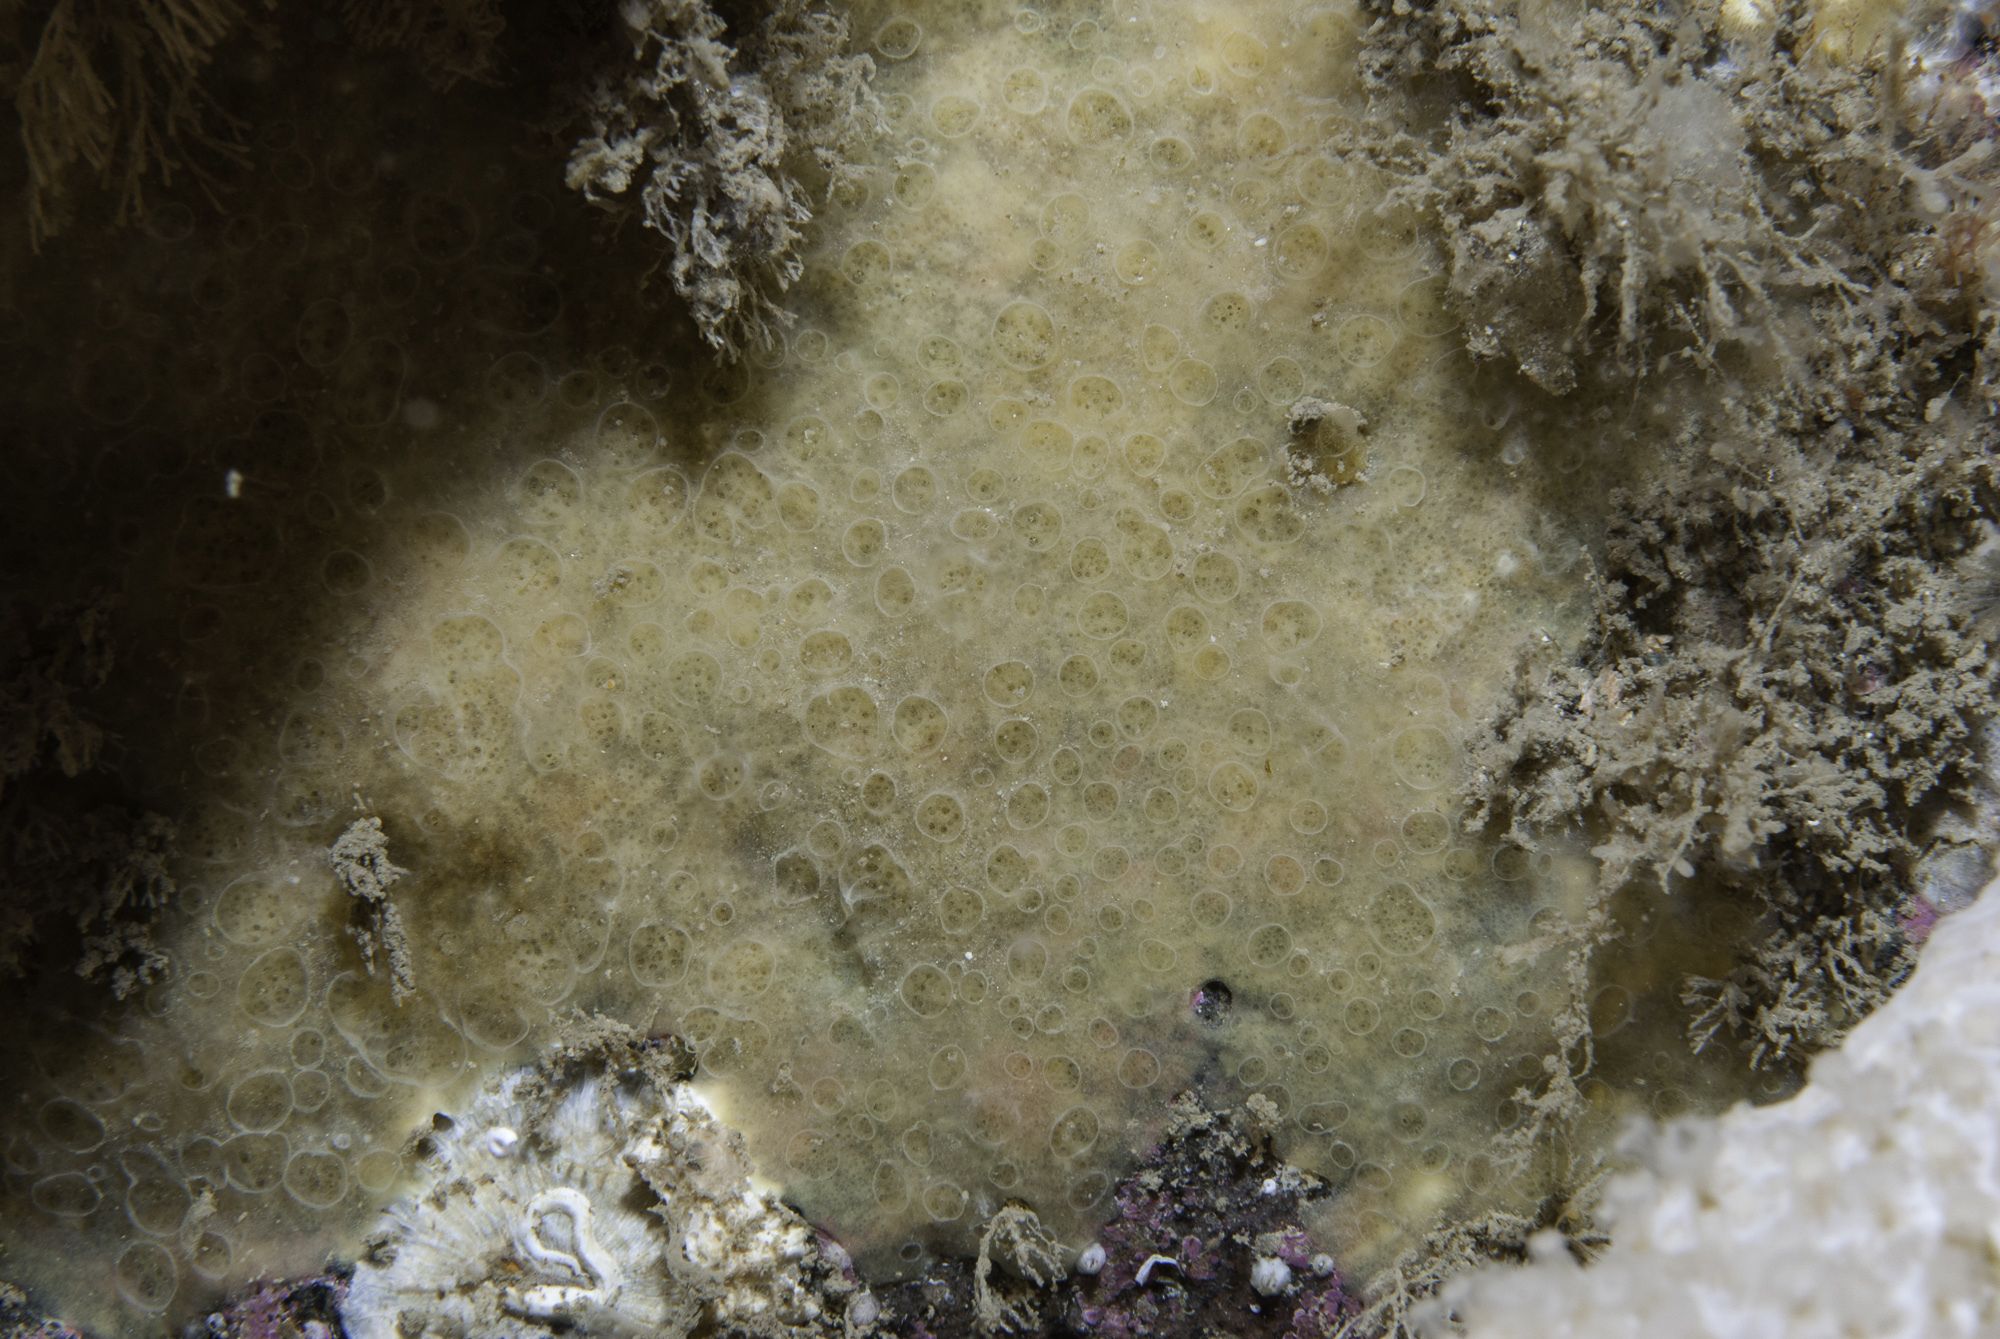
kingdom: Animalia
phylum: Porifera
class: Demospongiae
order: Poecilosclerida
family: Hymedesmiidae
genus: Hymedesmia
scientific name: Hymedesmia primitiva
